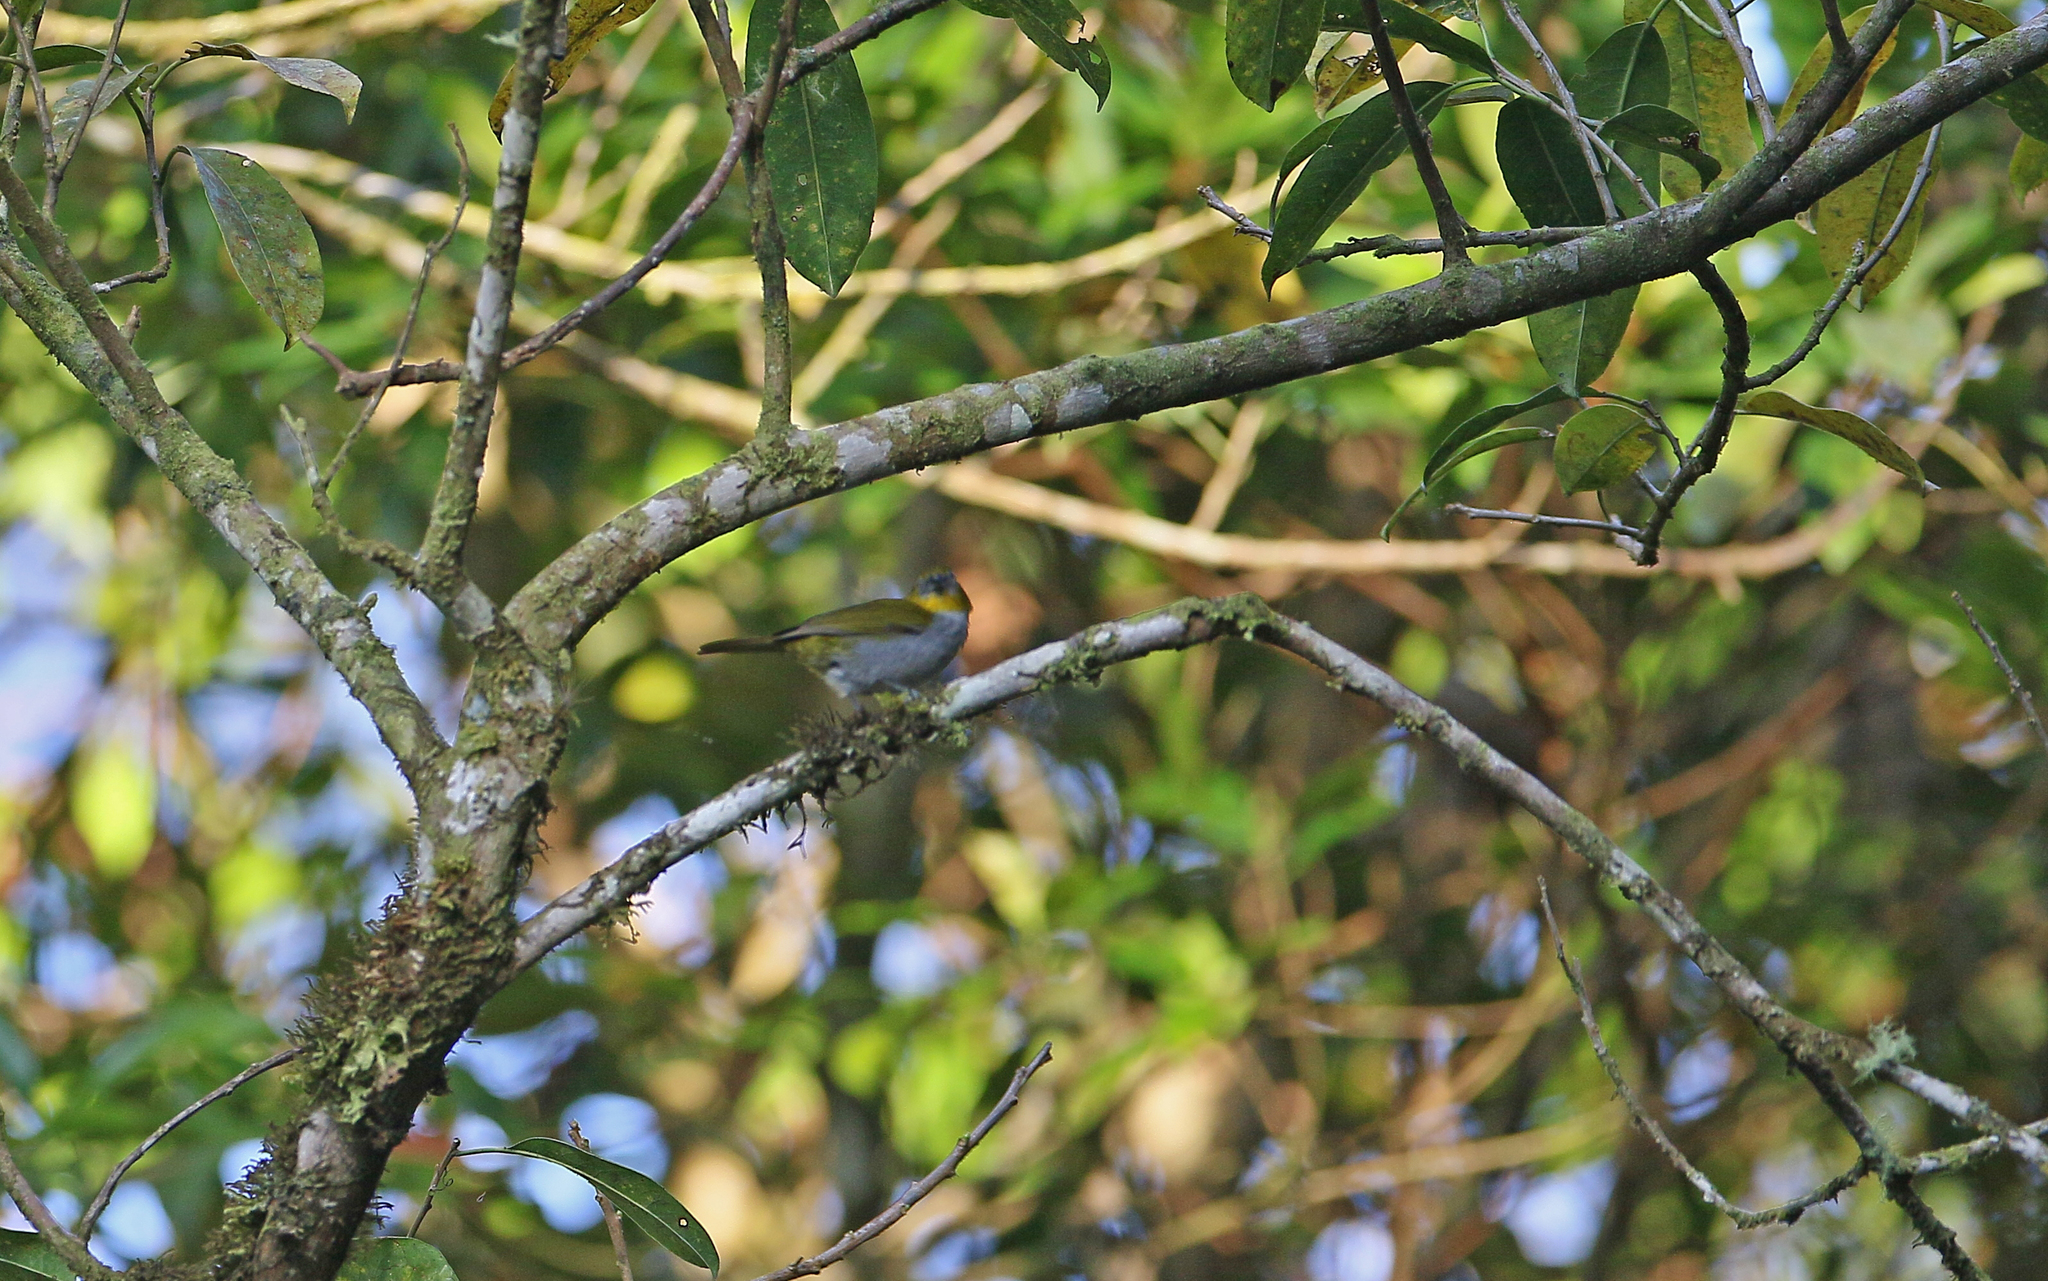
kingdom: Animalia
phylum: Chordata
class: Aves
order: Passeriformes
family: Passerellidae
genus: Chlorospingus
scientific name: Chlorospingus flavigularis
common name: Yellow-throated bush-tanager
